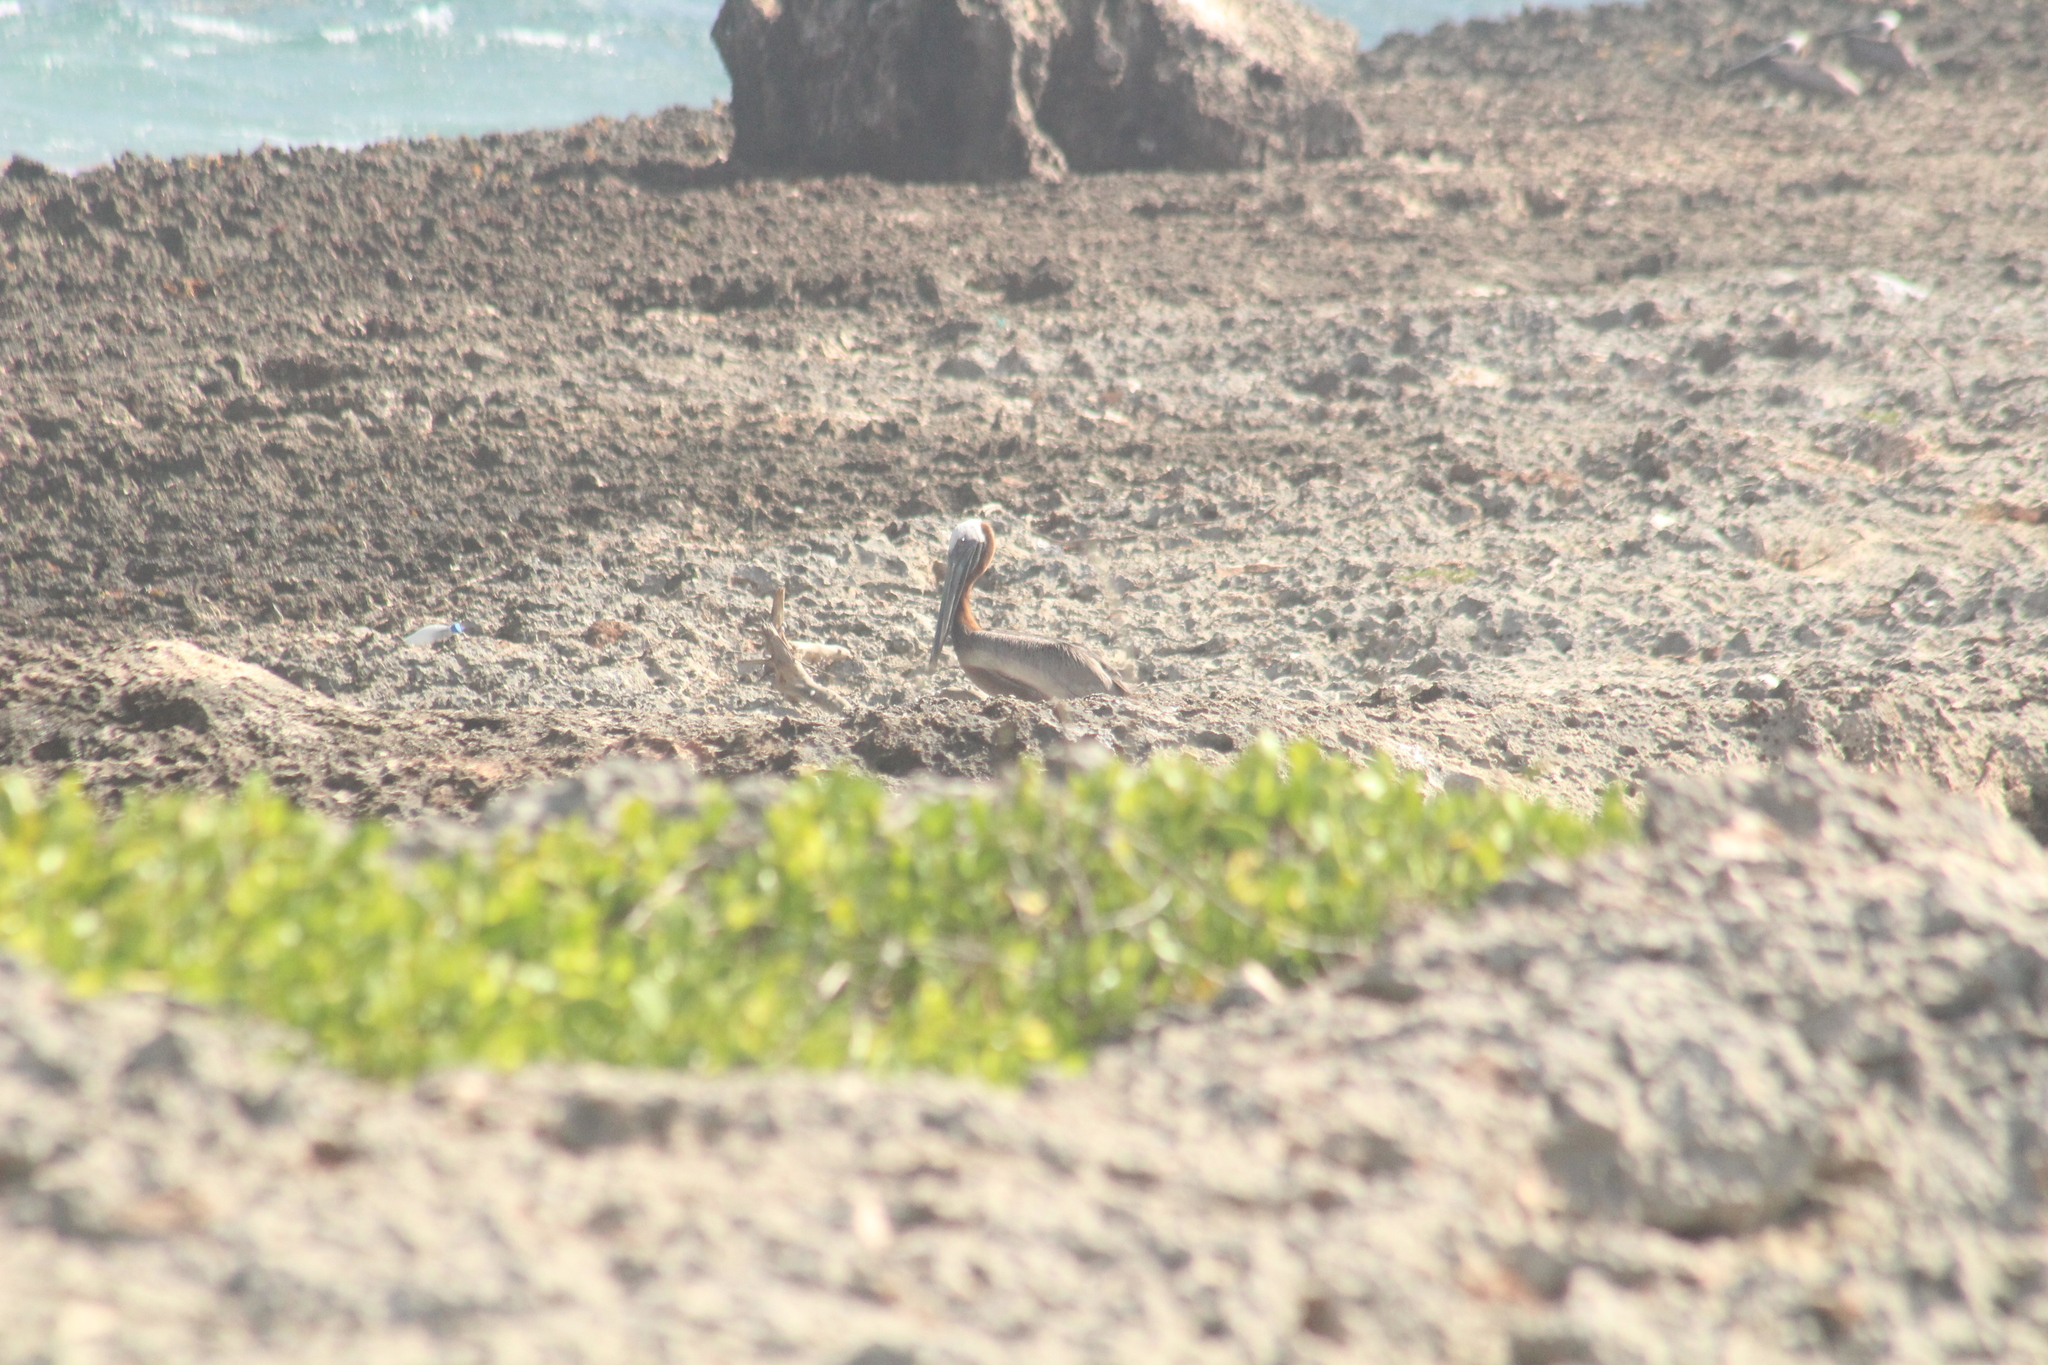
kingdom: Animalia
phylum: Chordata
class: Aves
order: Pelecaniformes
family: Pelecanidae
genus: Pelecanus
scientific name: Pelecanus occidentalis
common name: Brown pelican
